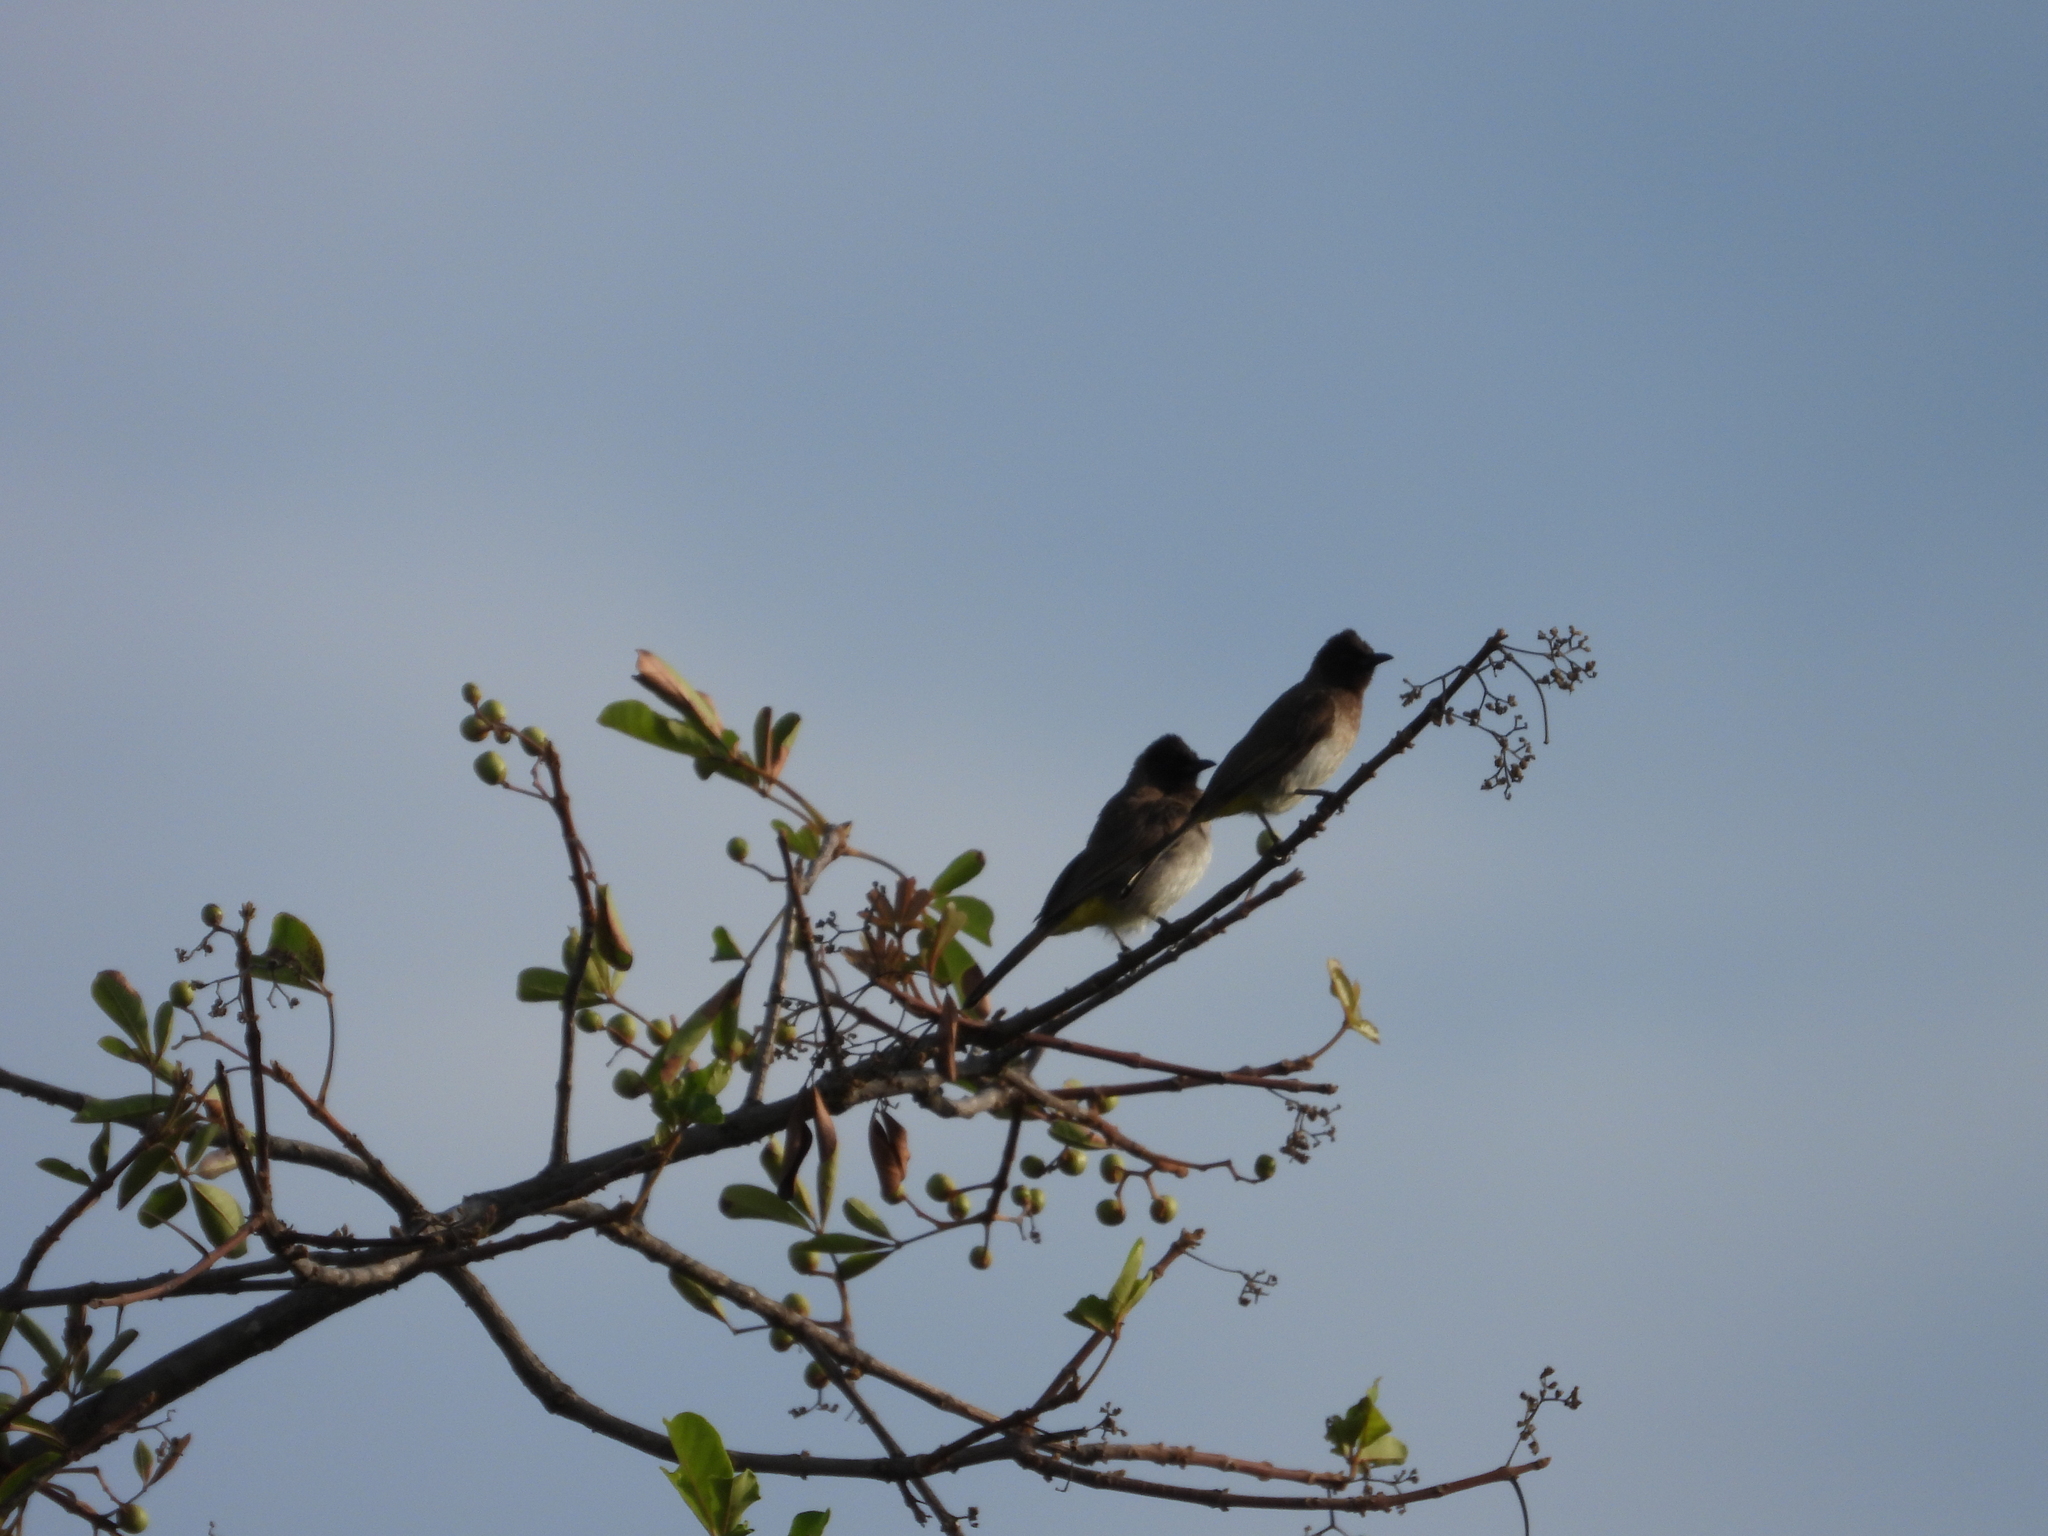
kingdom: Animalia
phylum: Chordata
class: Aves
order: Passeriformes
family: Pycnonotidae
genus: Pycnonotus
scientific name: Pycnonotus barbatus
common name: Common bulbul
